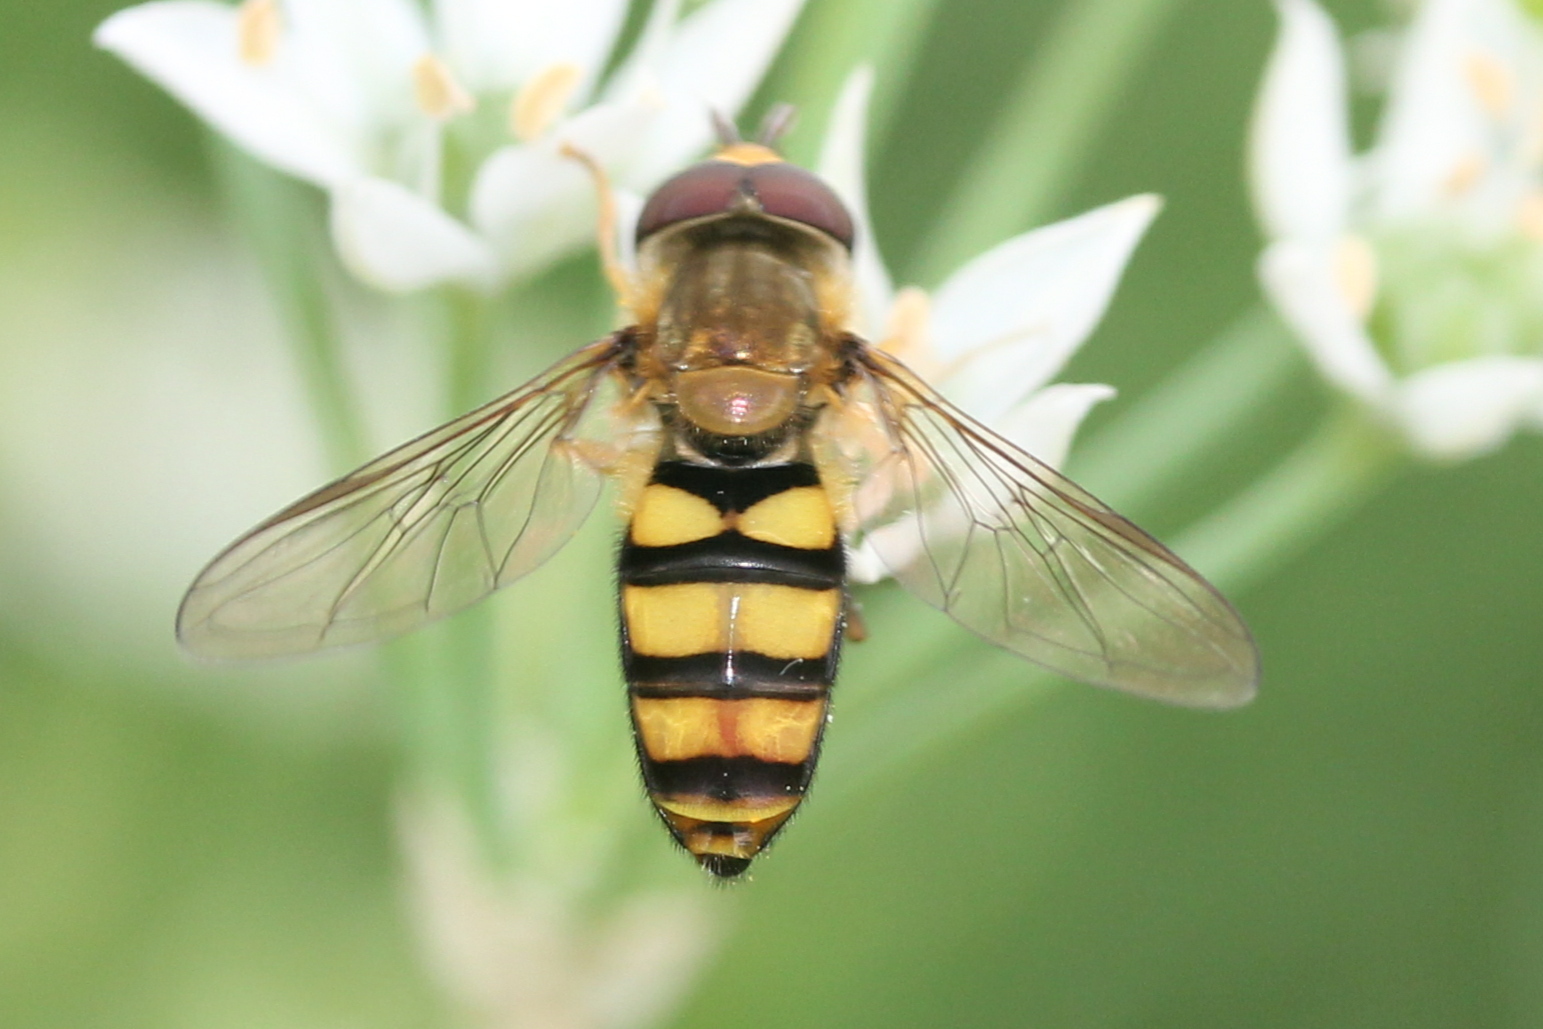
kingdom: Animalia
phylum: Arthropoda
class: Insecta
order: Diptera
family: Syrphidae
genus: Eupeodes
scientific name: Eupeodes
